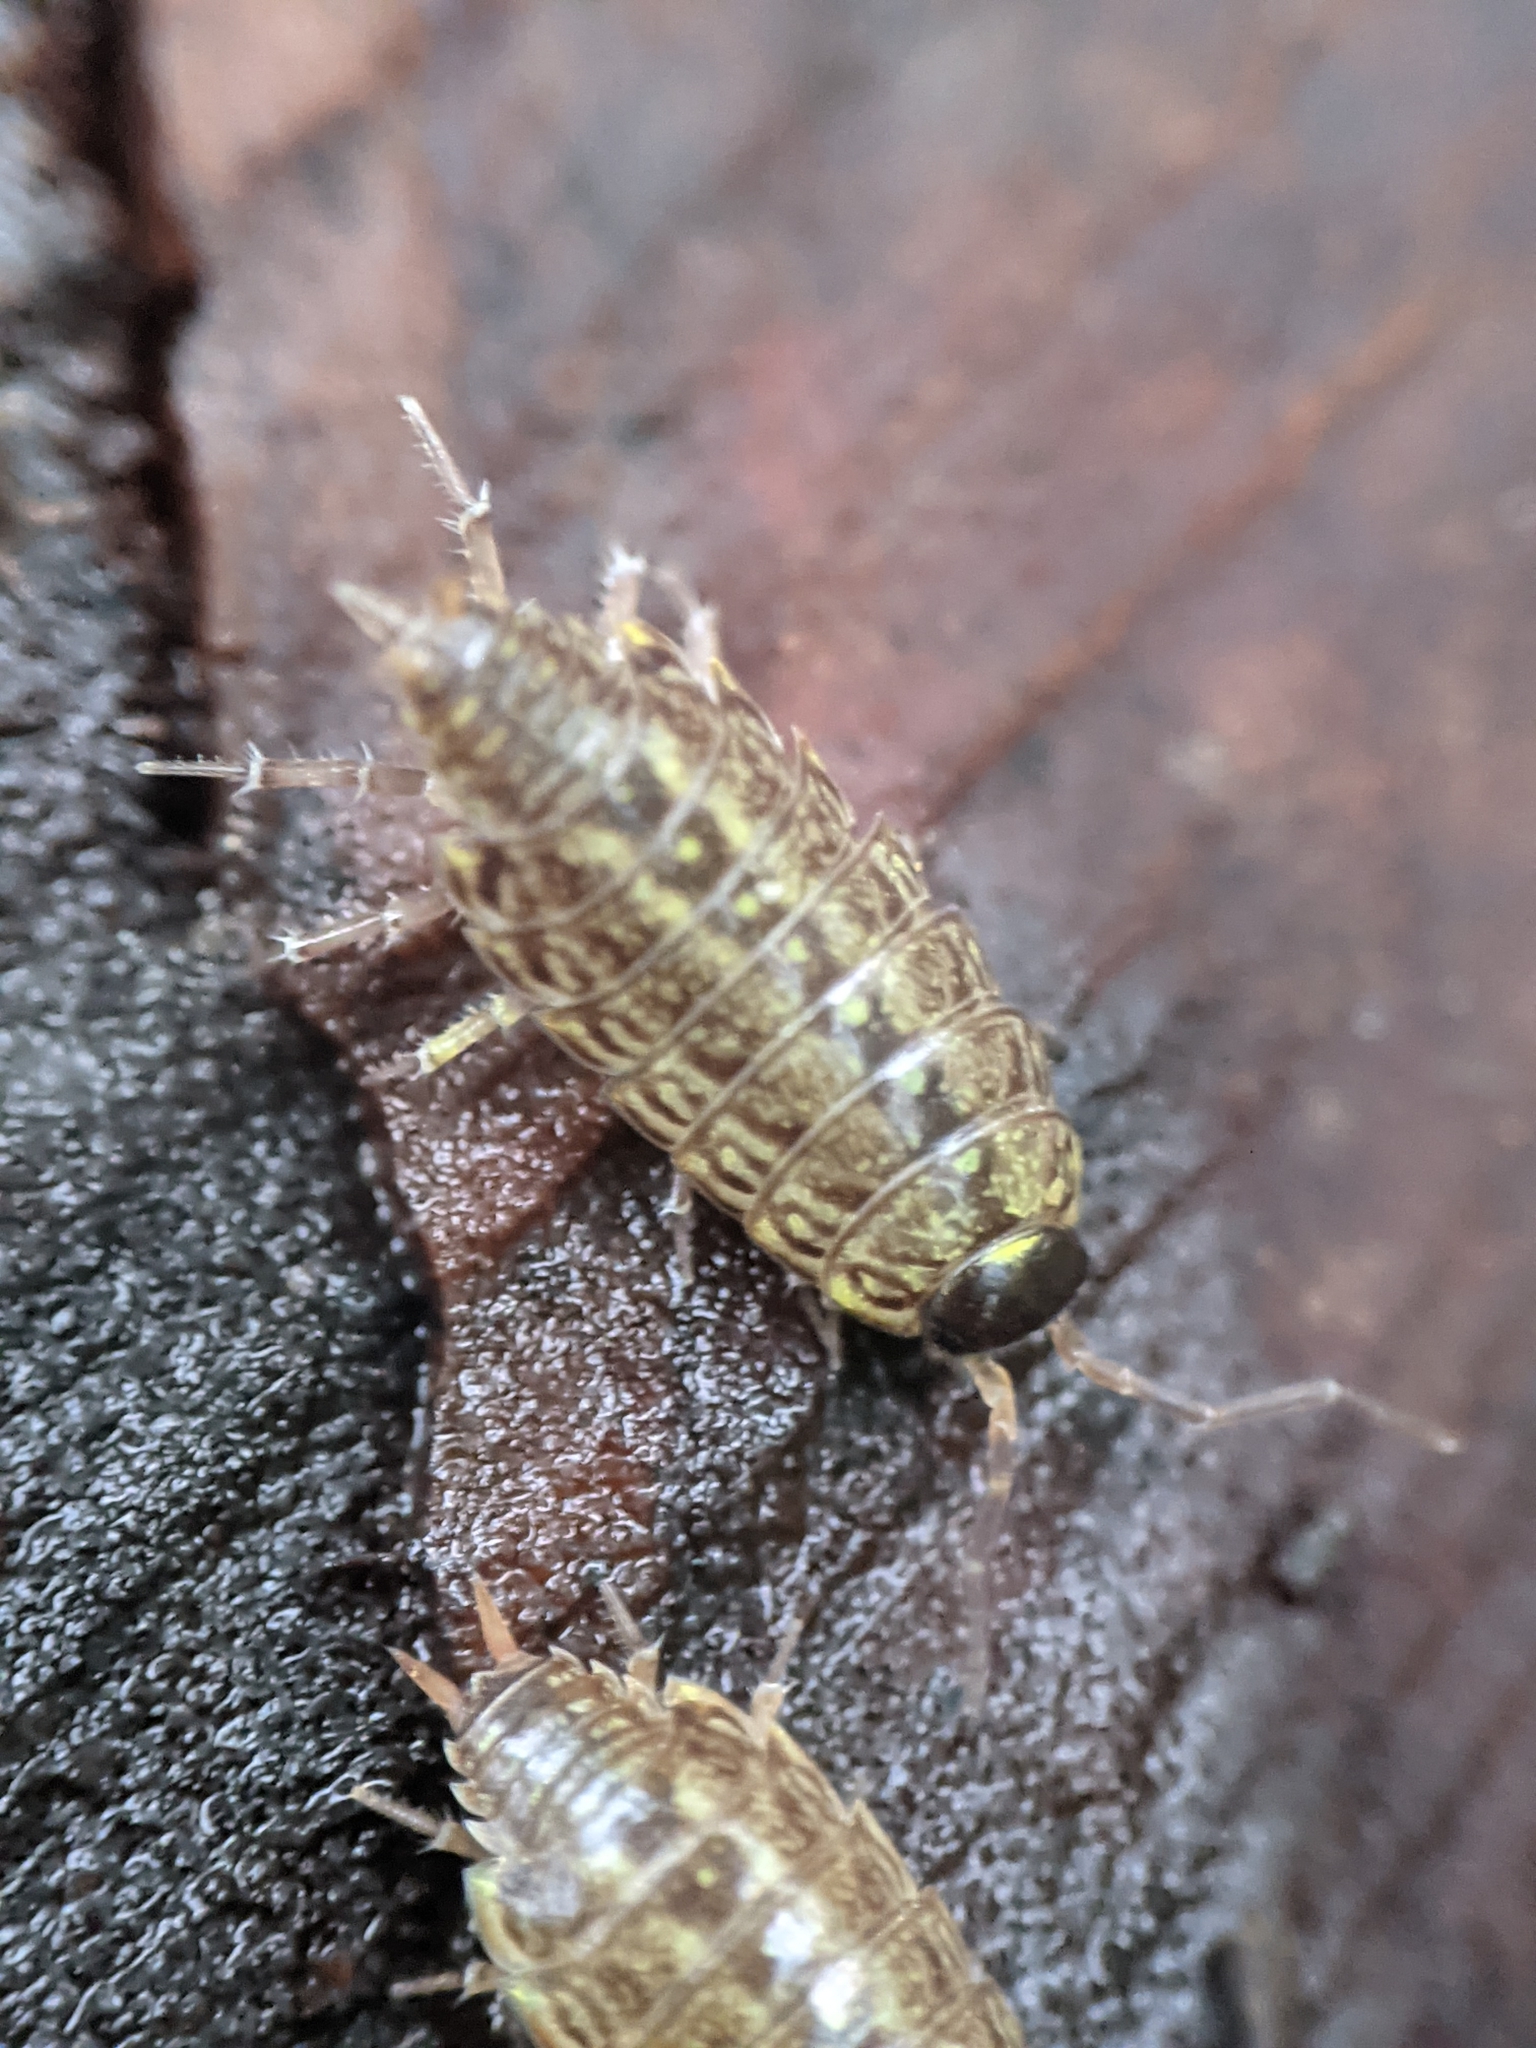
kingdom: Animalia
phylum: Arthropoda
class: Malacostraca
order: Isopoda
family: Philosciidae
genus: Philoscia
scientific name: Philoscia muscorum
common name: Common striped woodlouse
